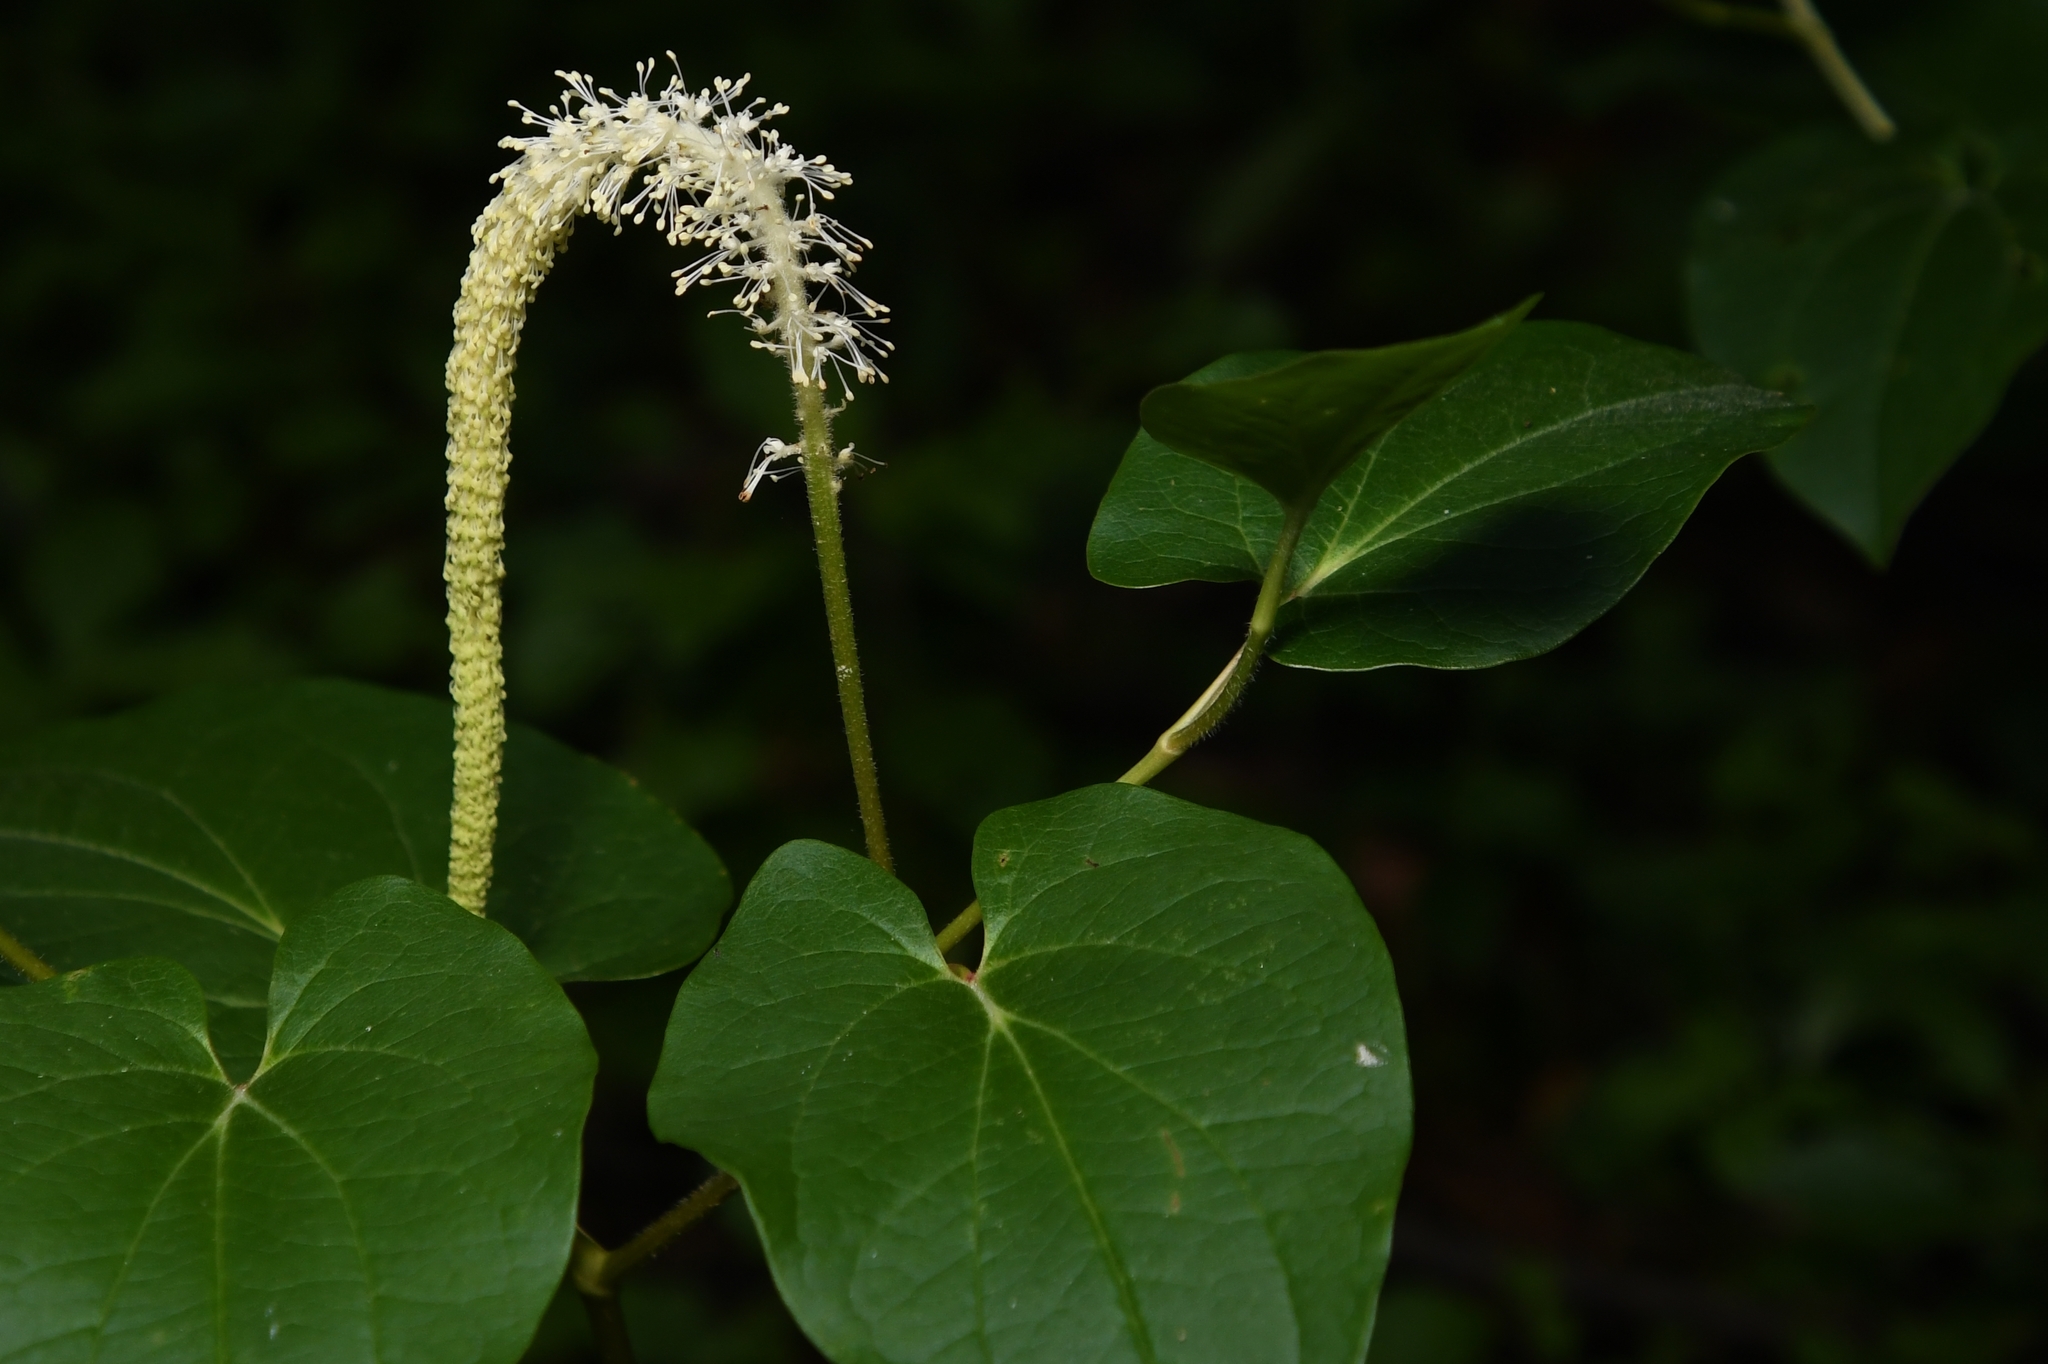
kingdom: Plantae
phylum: Tracheophyta
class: Magnoliopsida
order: Piperales
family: Saururaceae
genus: Saururus
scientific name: Saururus cernuus
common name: Lizard's-tail
